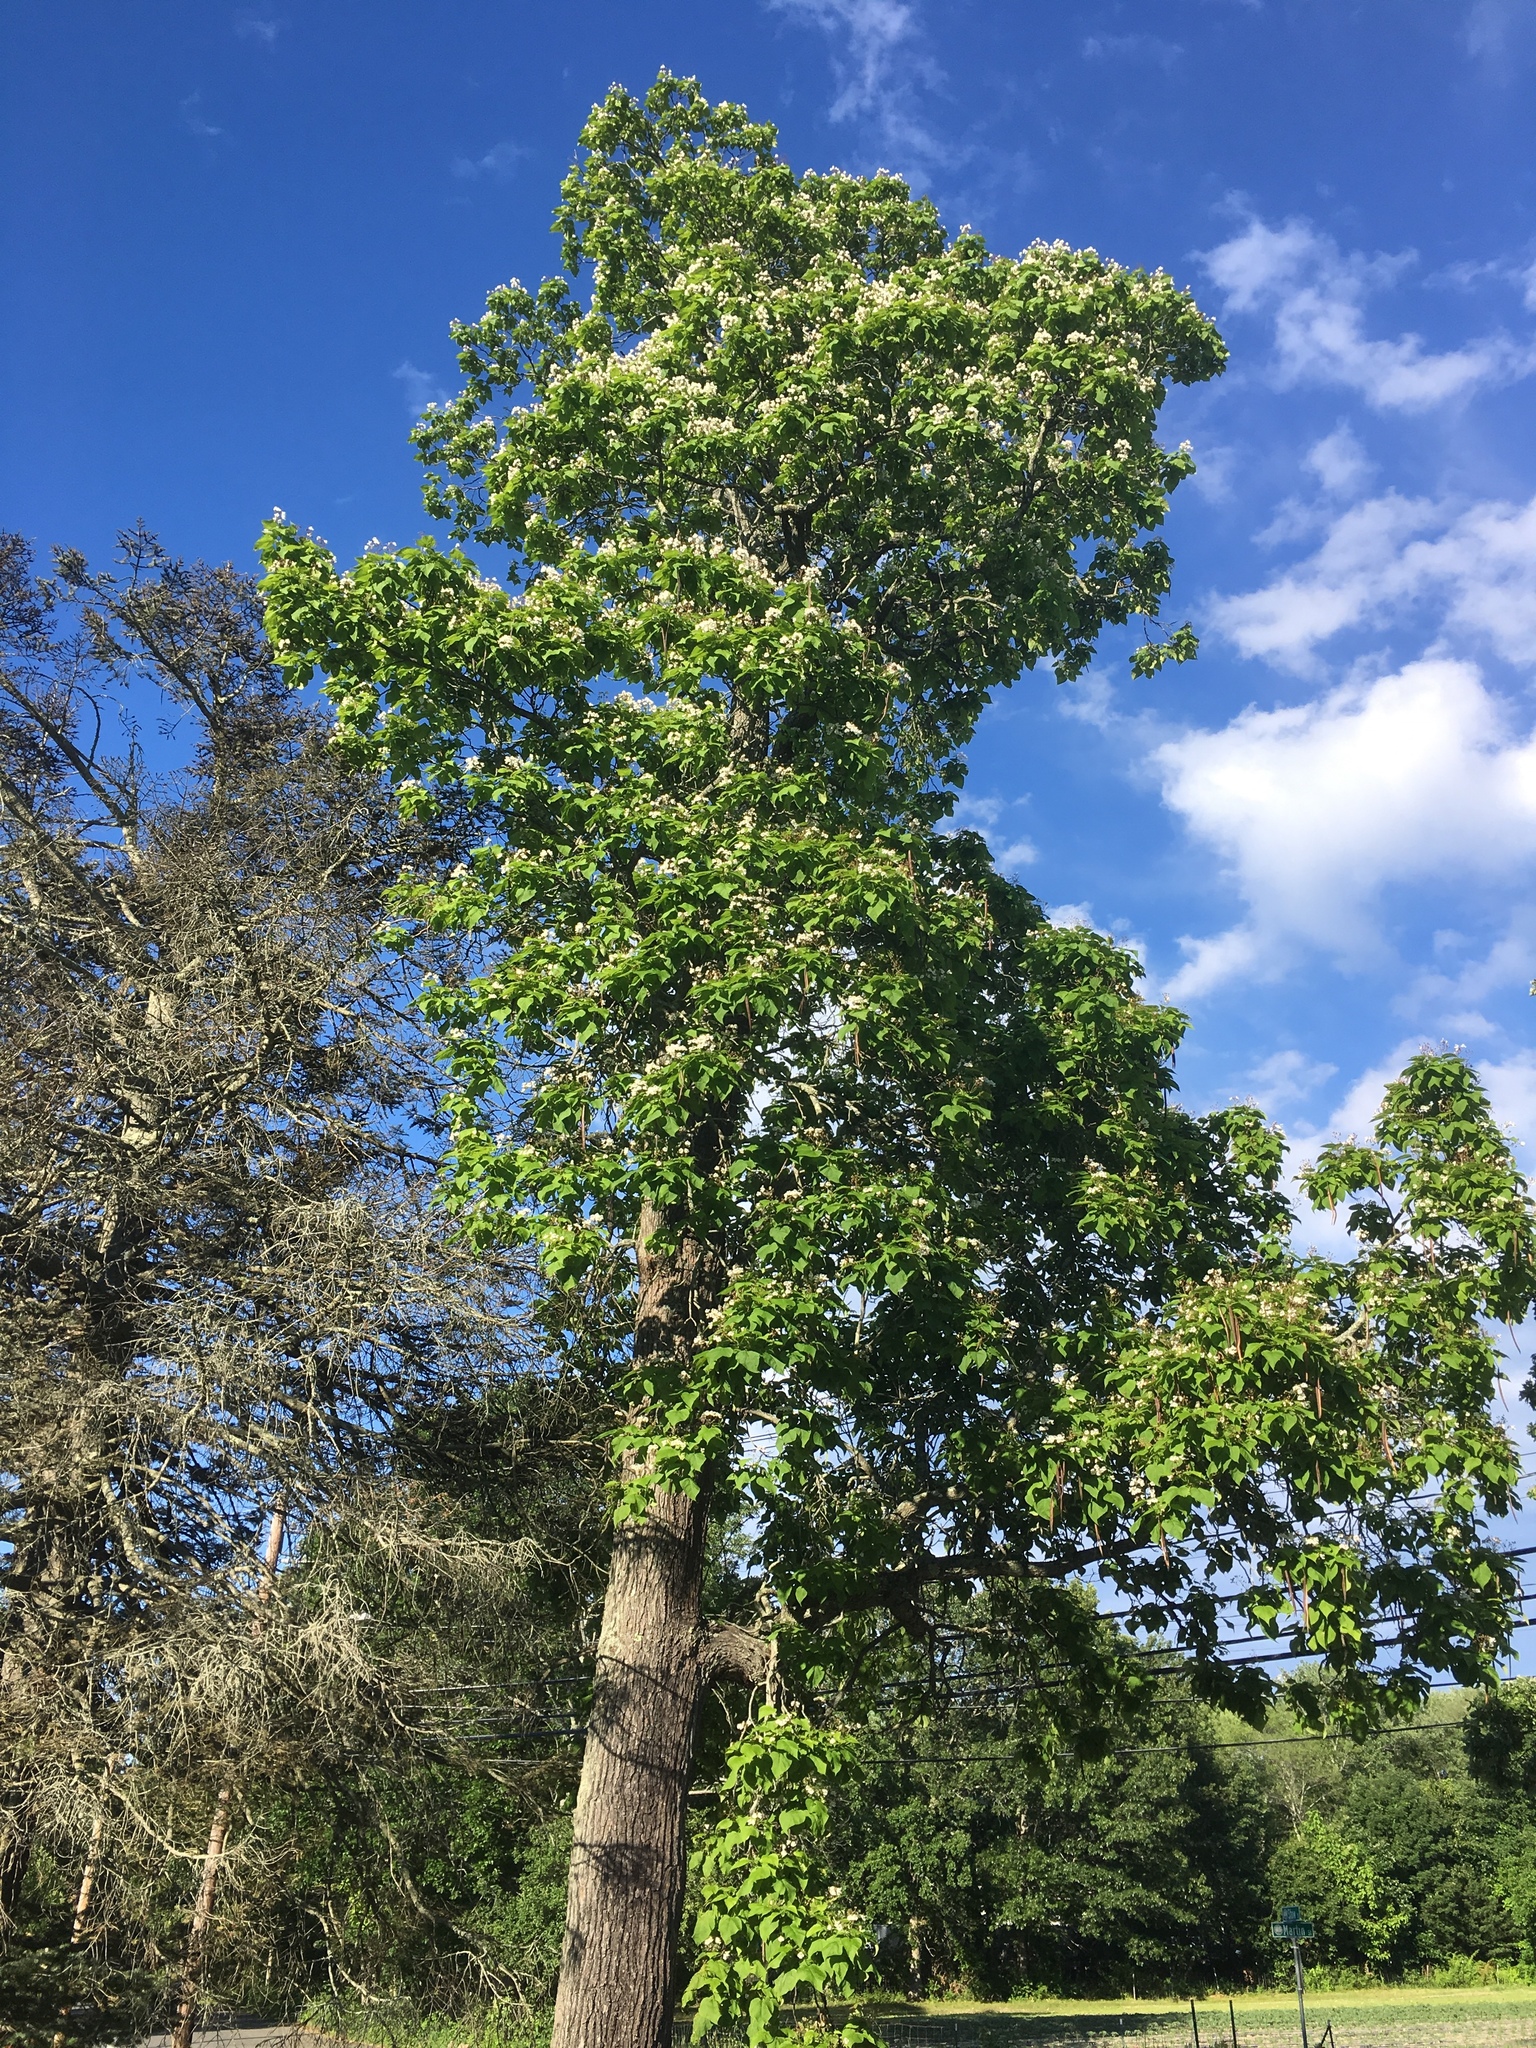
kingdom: Plantae
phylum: Tracheophyta
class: Magnoliopsida
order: Lamiales
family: Bignoniaceae
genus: Catalpa
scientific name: Catalpa speciosa
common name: Northern catalpa
